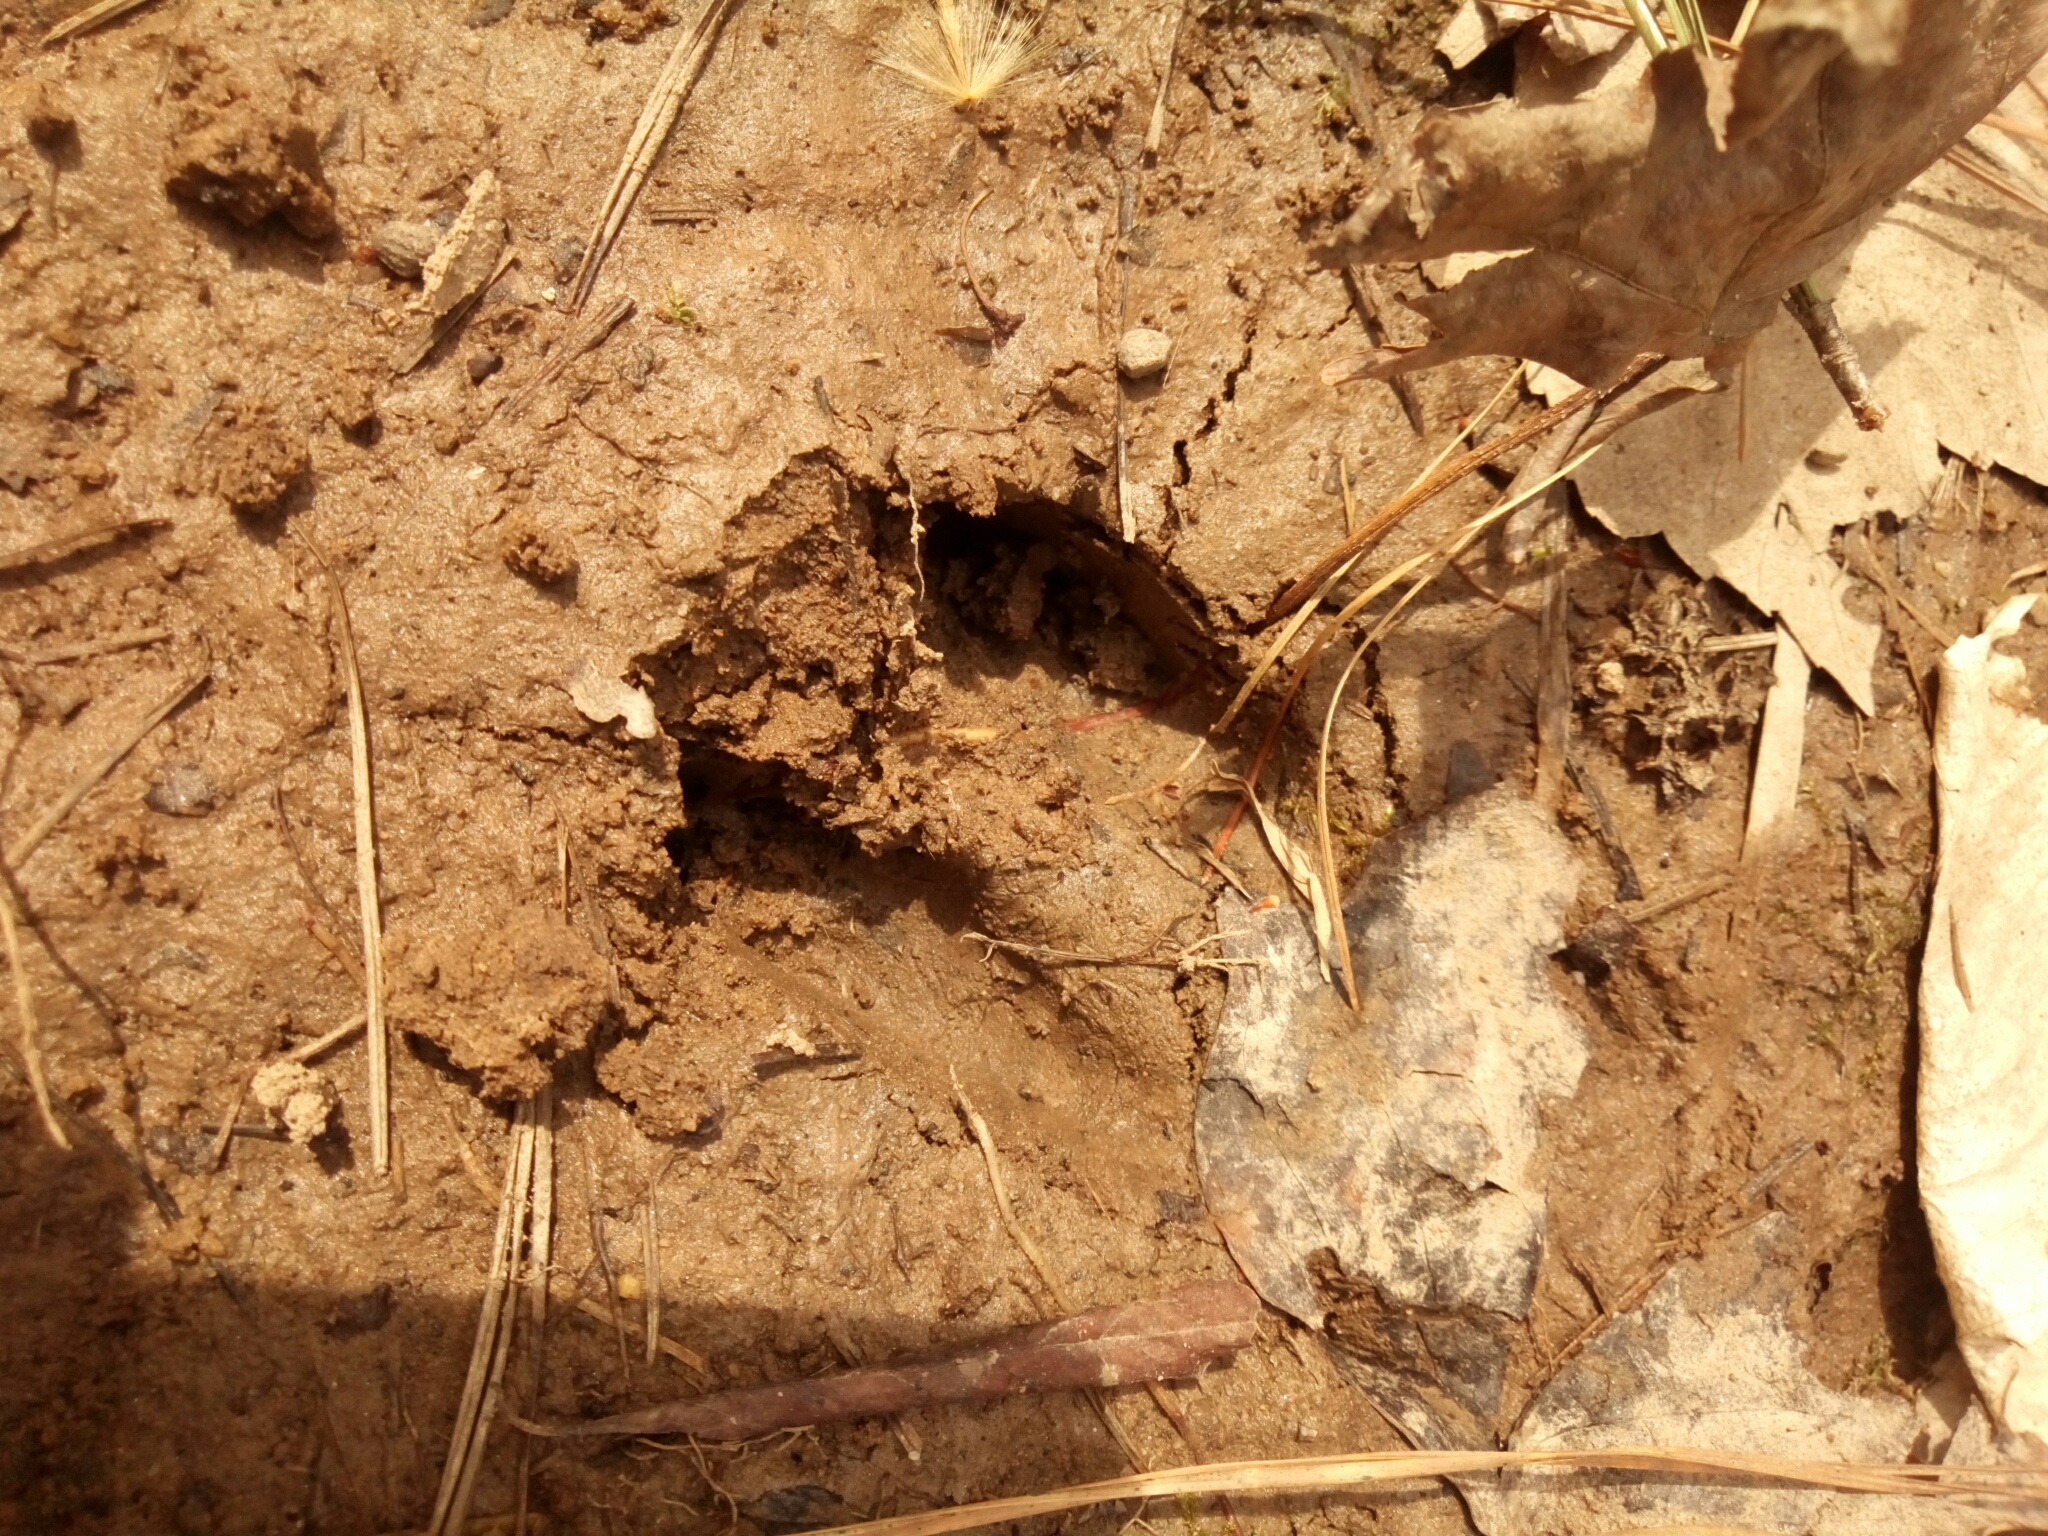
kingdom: Animalia
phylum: Chordata
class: Mammalia
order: Artiodactyla
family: Cervidae
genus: Odocoileus
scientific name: Odocoileus virginianus
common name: White-tailed deer
